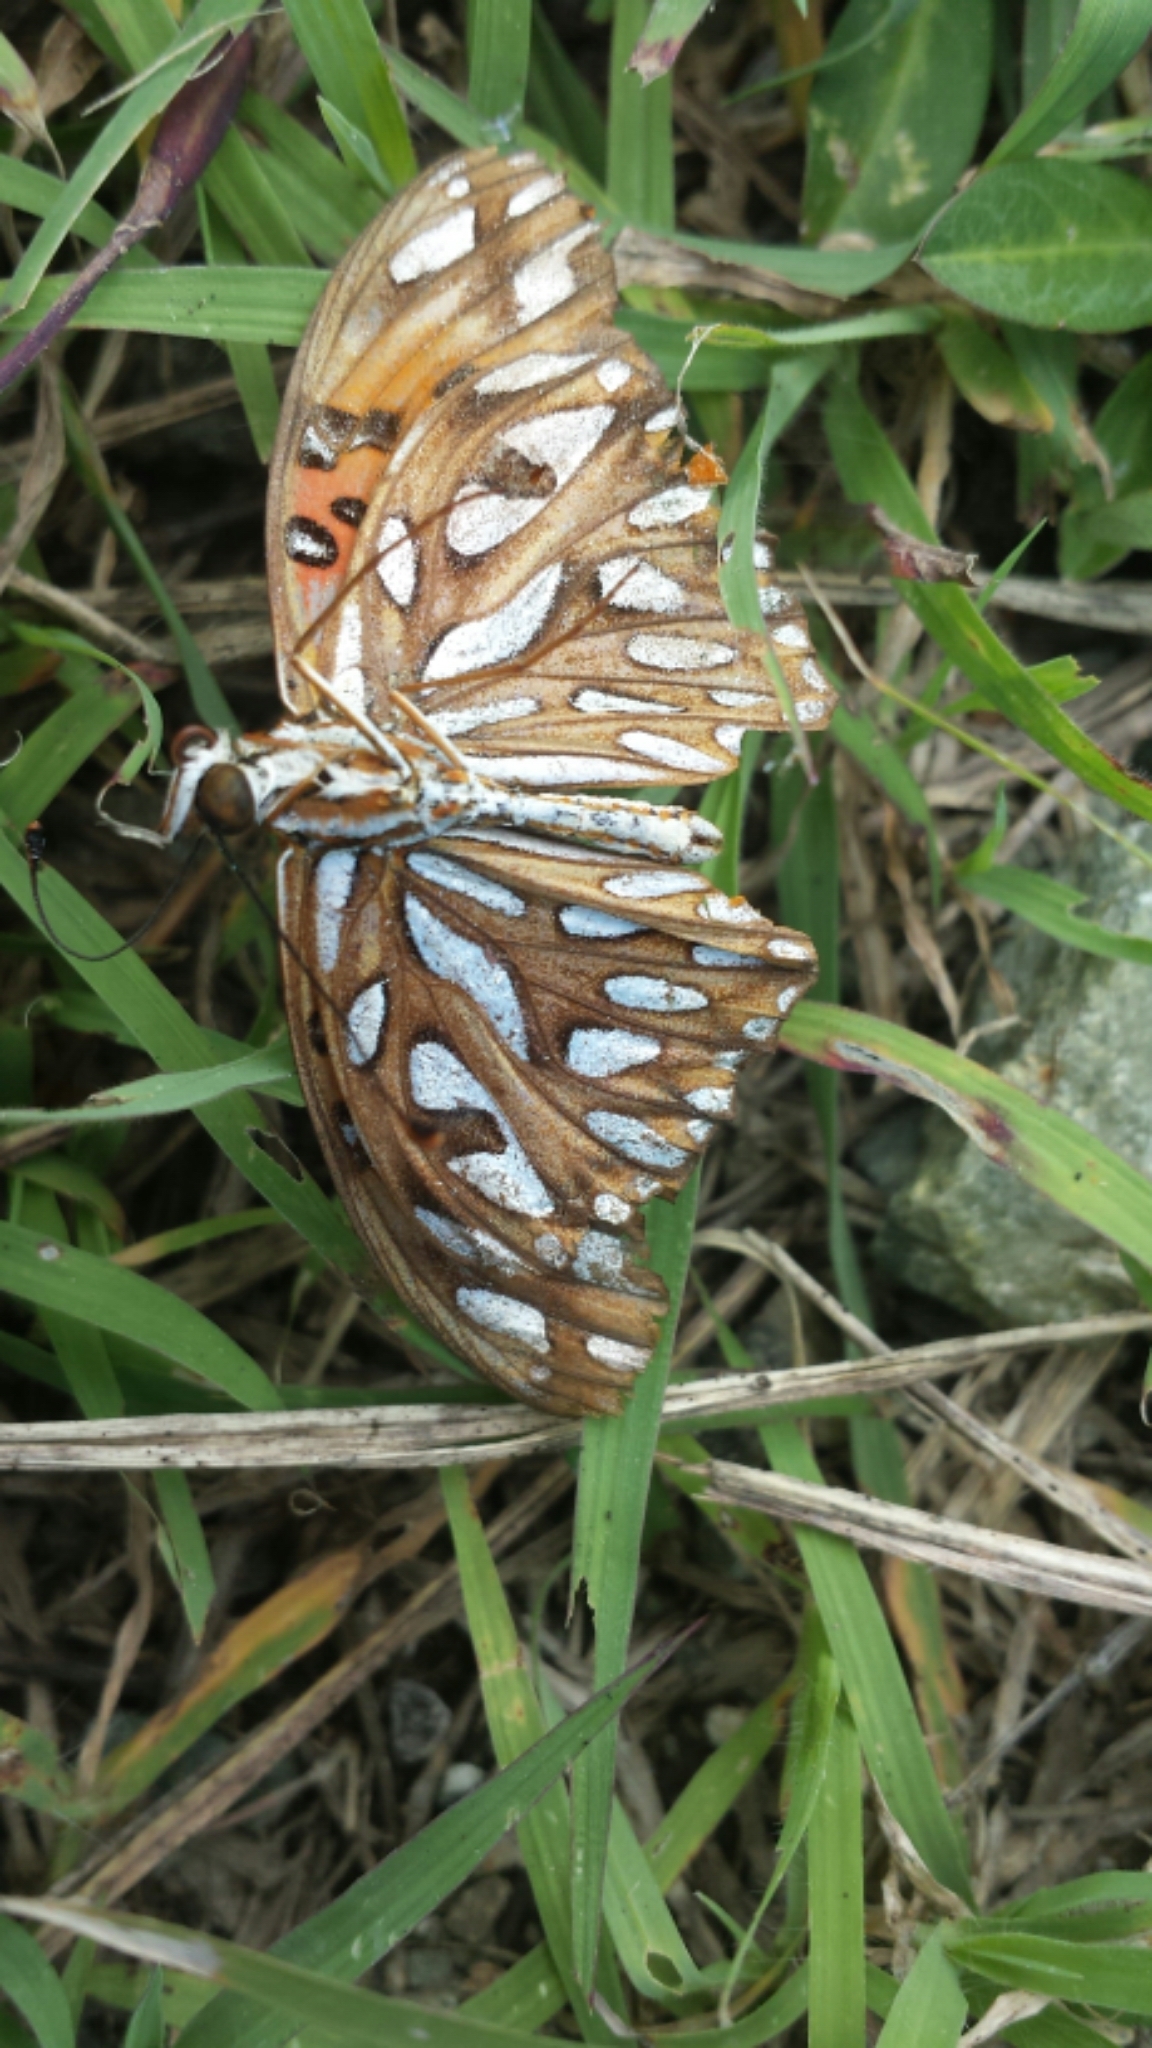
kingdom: Animalia
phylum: Arthropoda
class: Insecta
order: Lepidoptera
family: Nymphalidae
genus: Dione
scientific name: Dione vanillae
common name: Gulf fritillary
